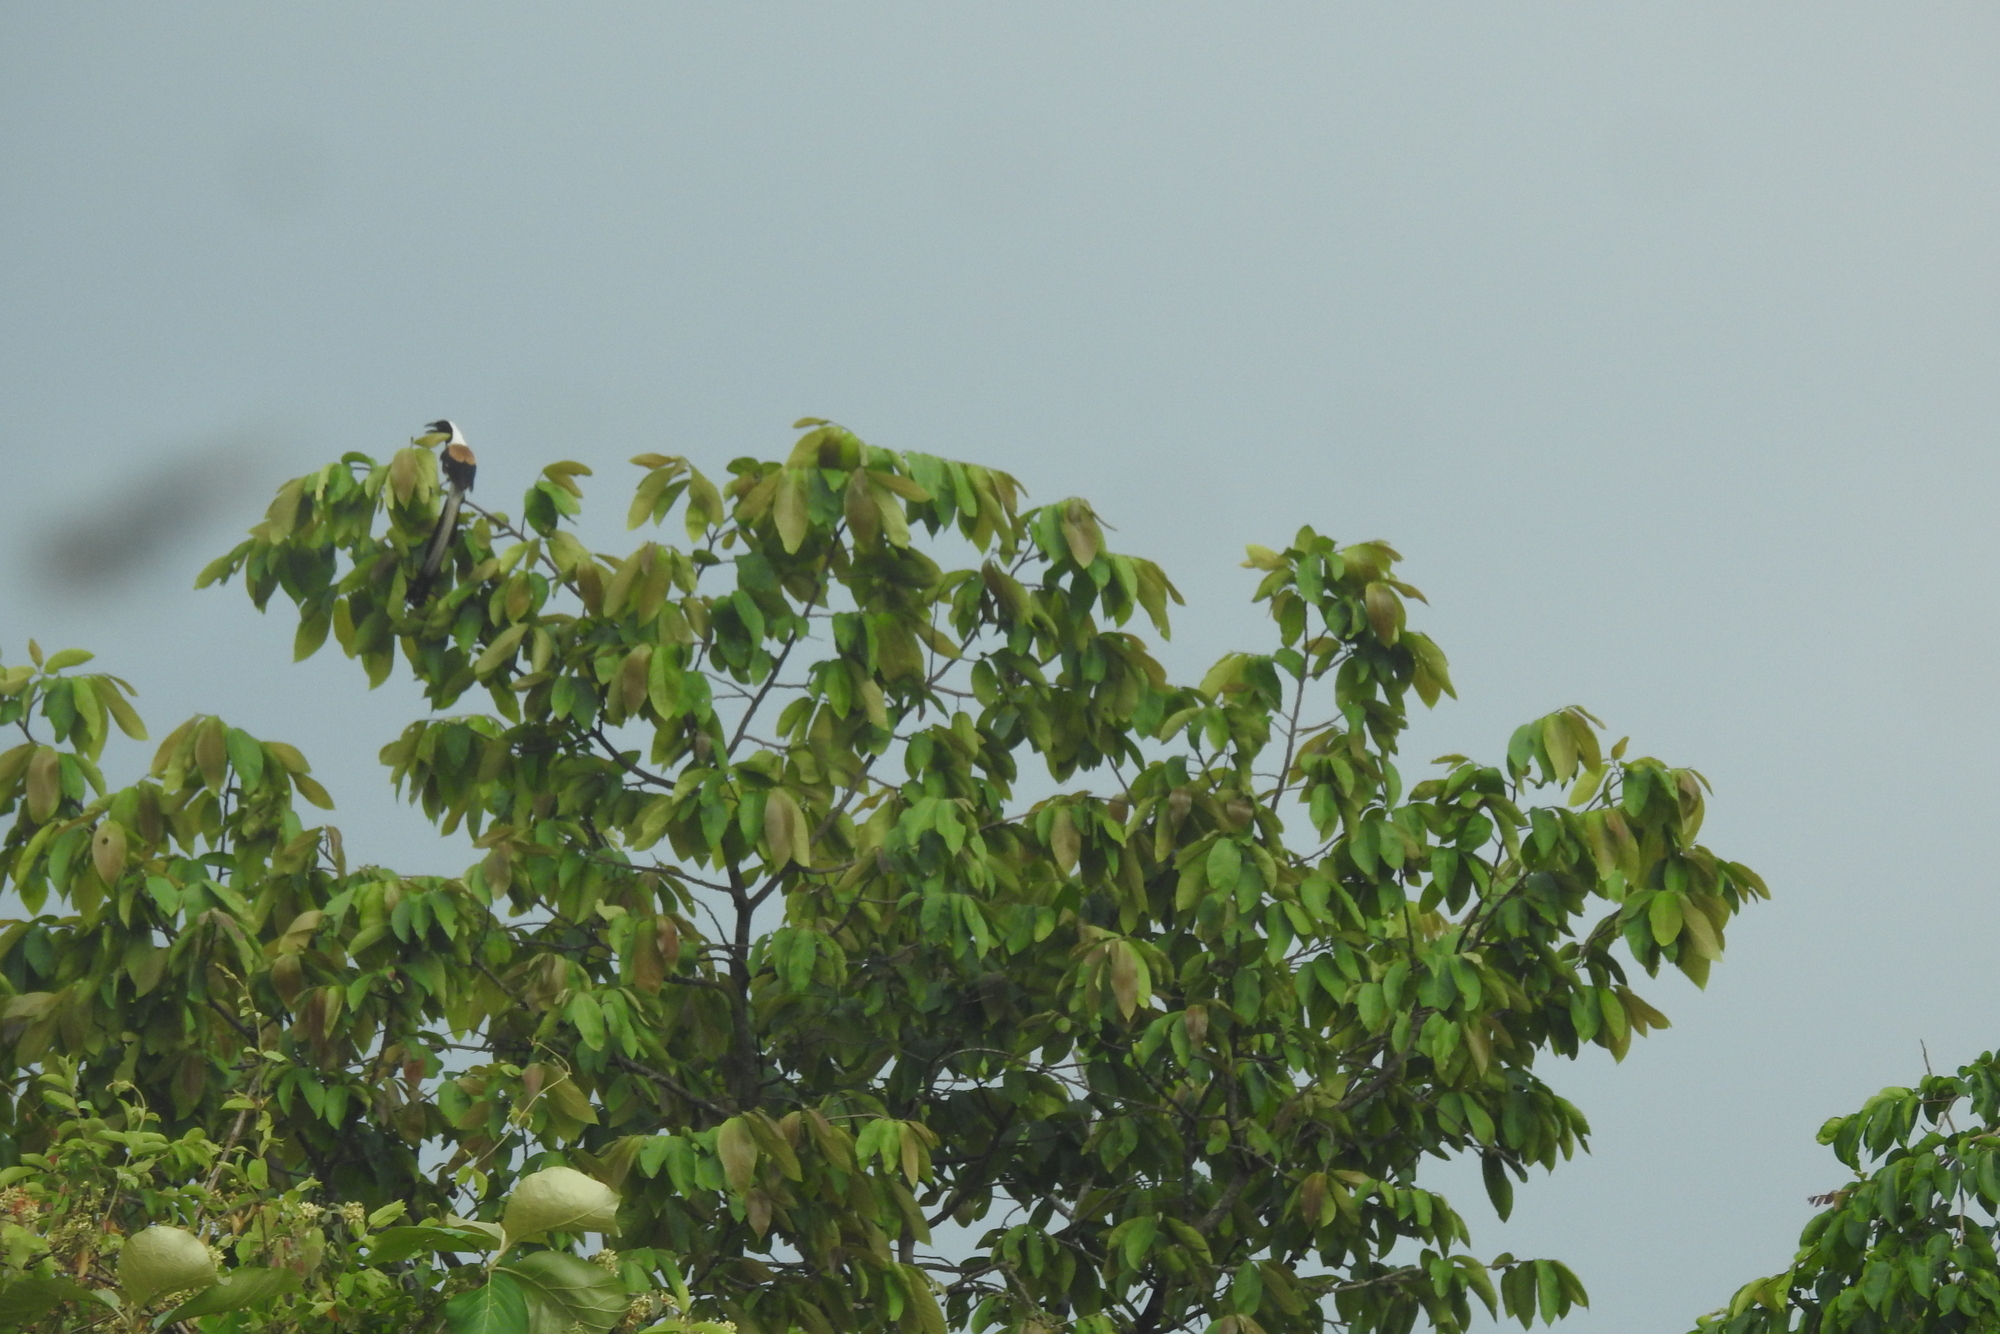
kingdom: Animalia
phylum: Chordata
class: Aves
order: Passeriformes
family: Corvidae
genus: Dendrocitta
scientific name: Dendrocitta leucogastra
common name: White-bellied treepie
